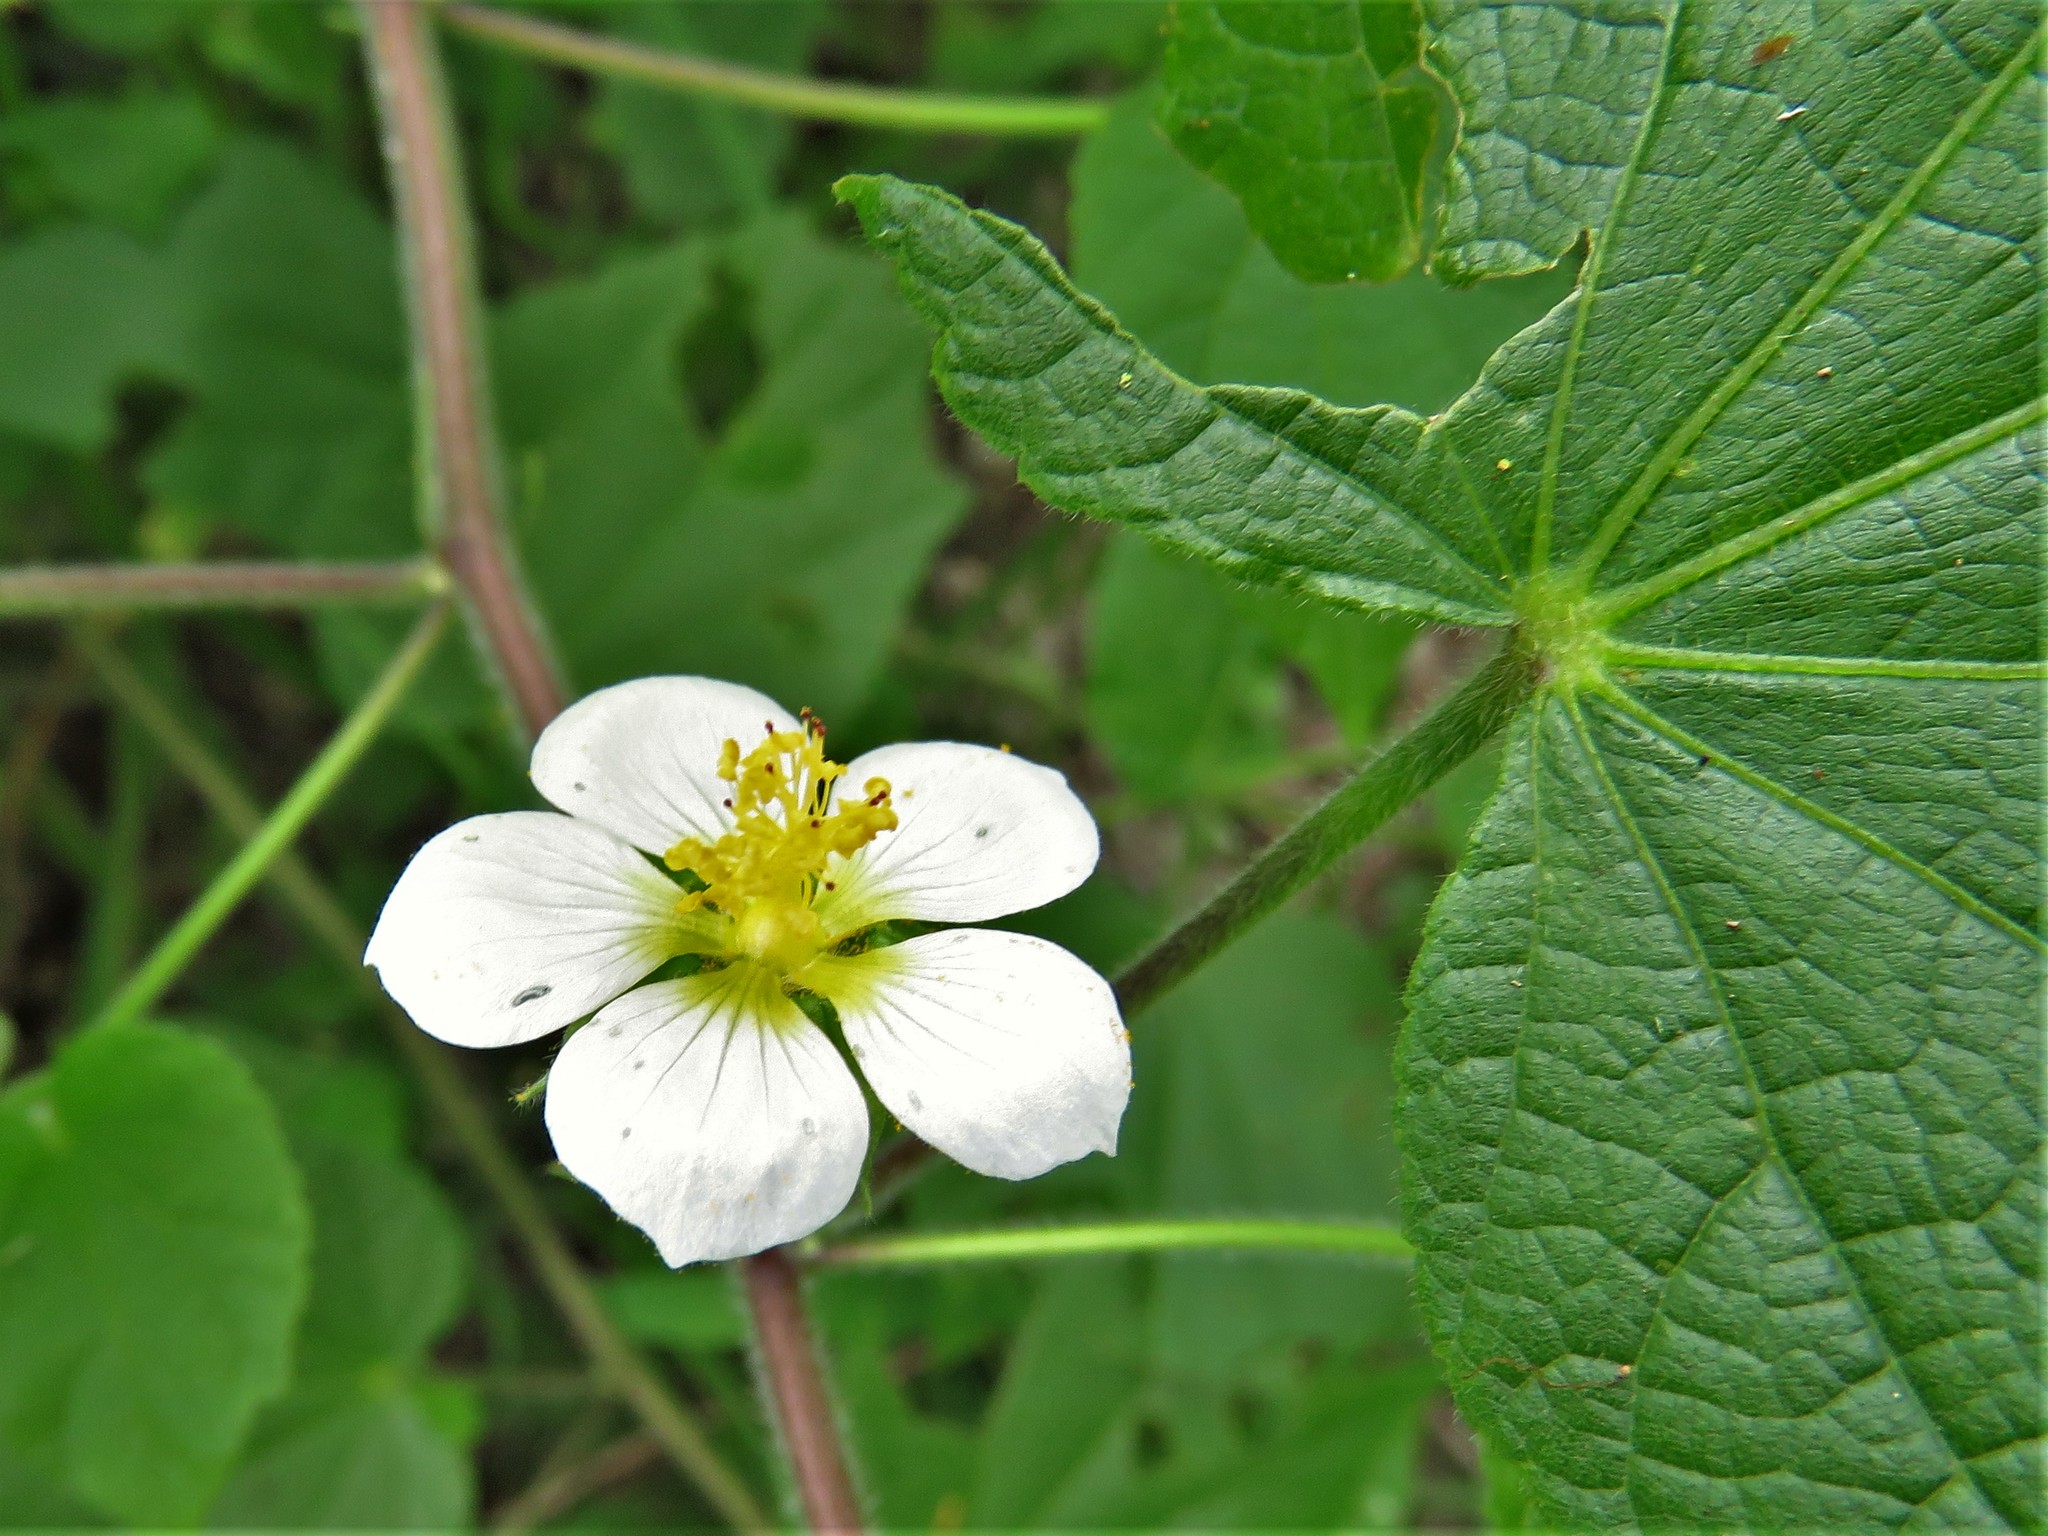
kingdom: Plantae
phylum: Tracheophyta
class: Magnoliopsida
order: Malvales
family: Malvaceae
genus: Herissantia
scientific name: Herissantia crispa
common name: Bladdermallow
